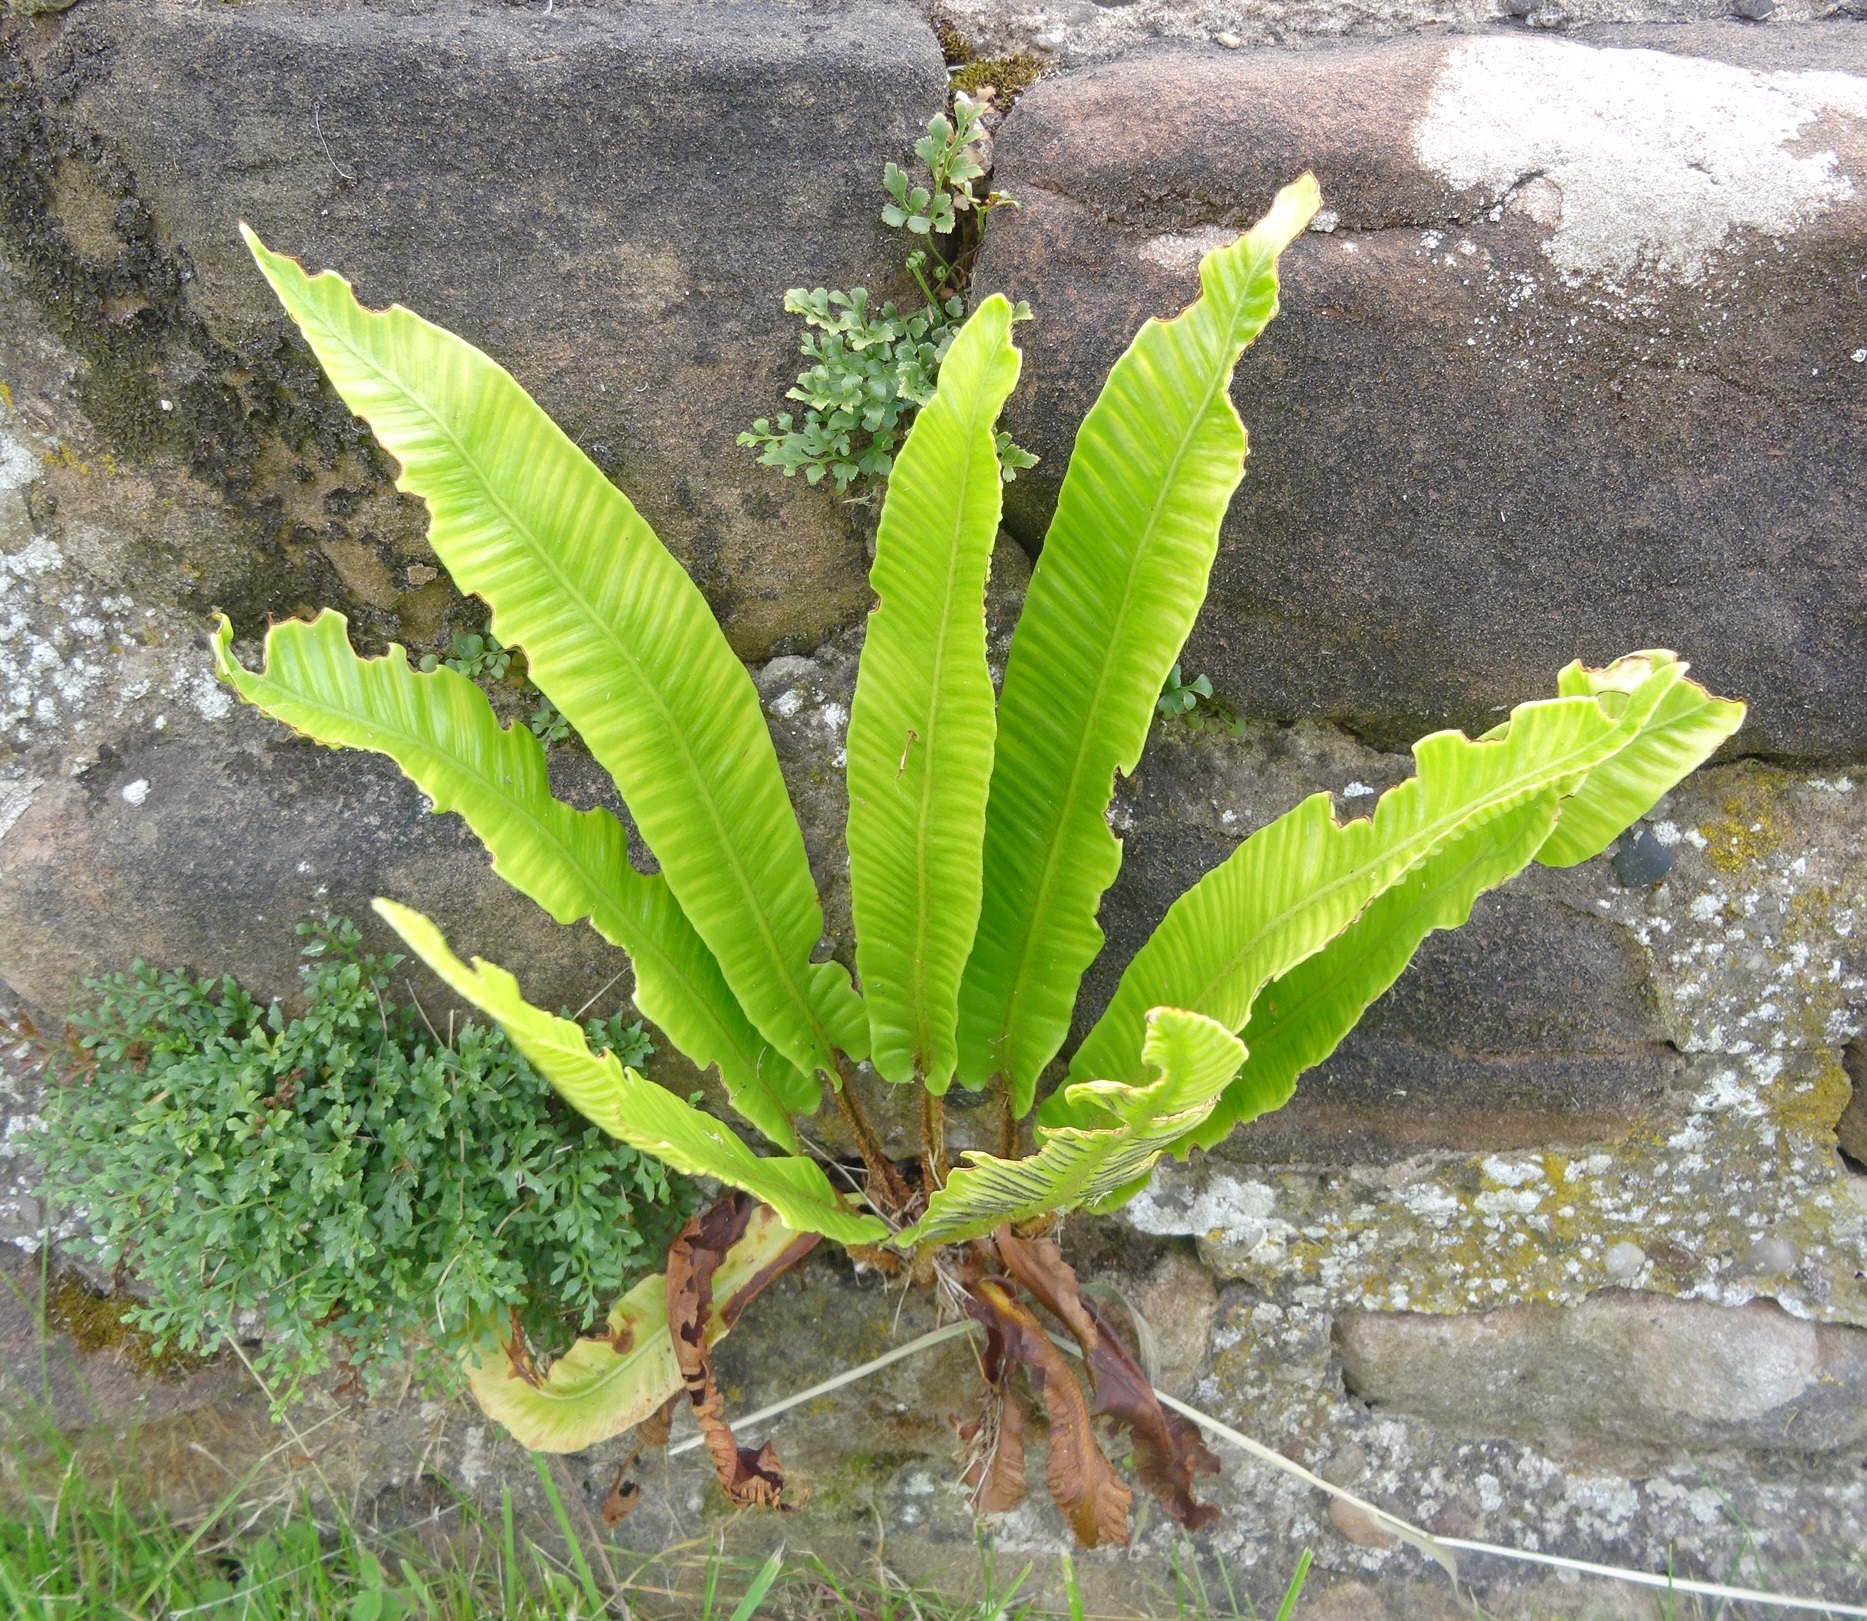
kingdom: Plantae
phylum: Tracheophyta
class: Polypodiopsida
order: Polypodiales
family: Aspleniaceae
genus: Asplenium
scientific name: Asplenium scolopendrium
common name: Hart's-tongue fern
